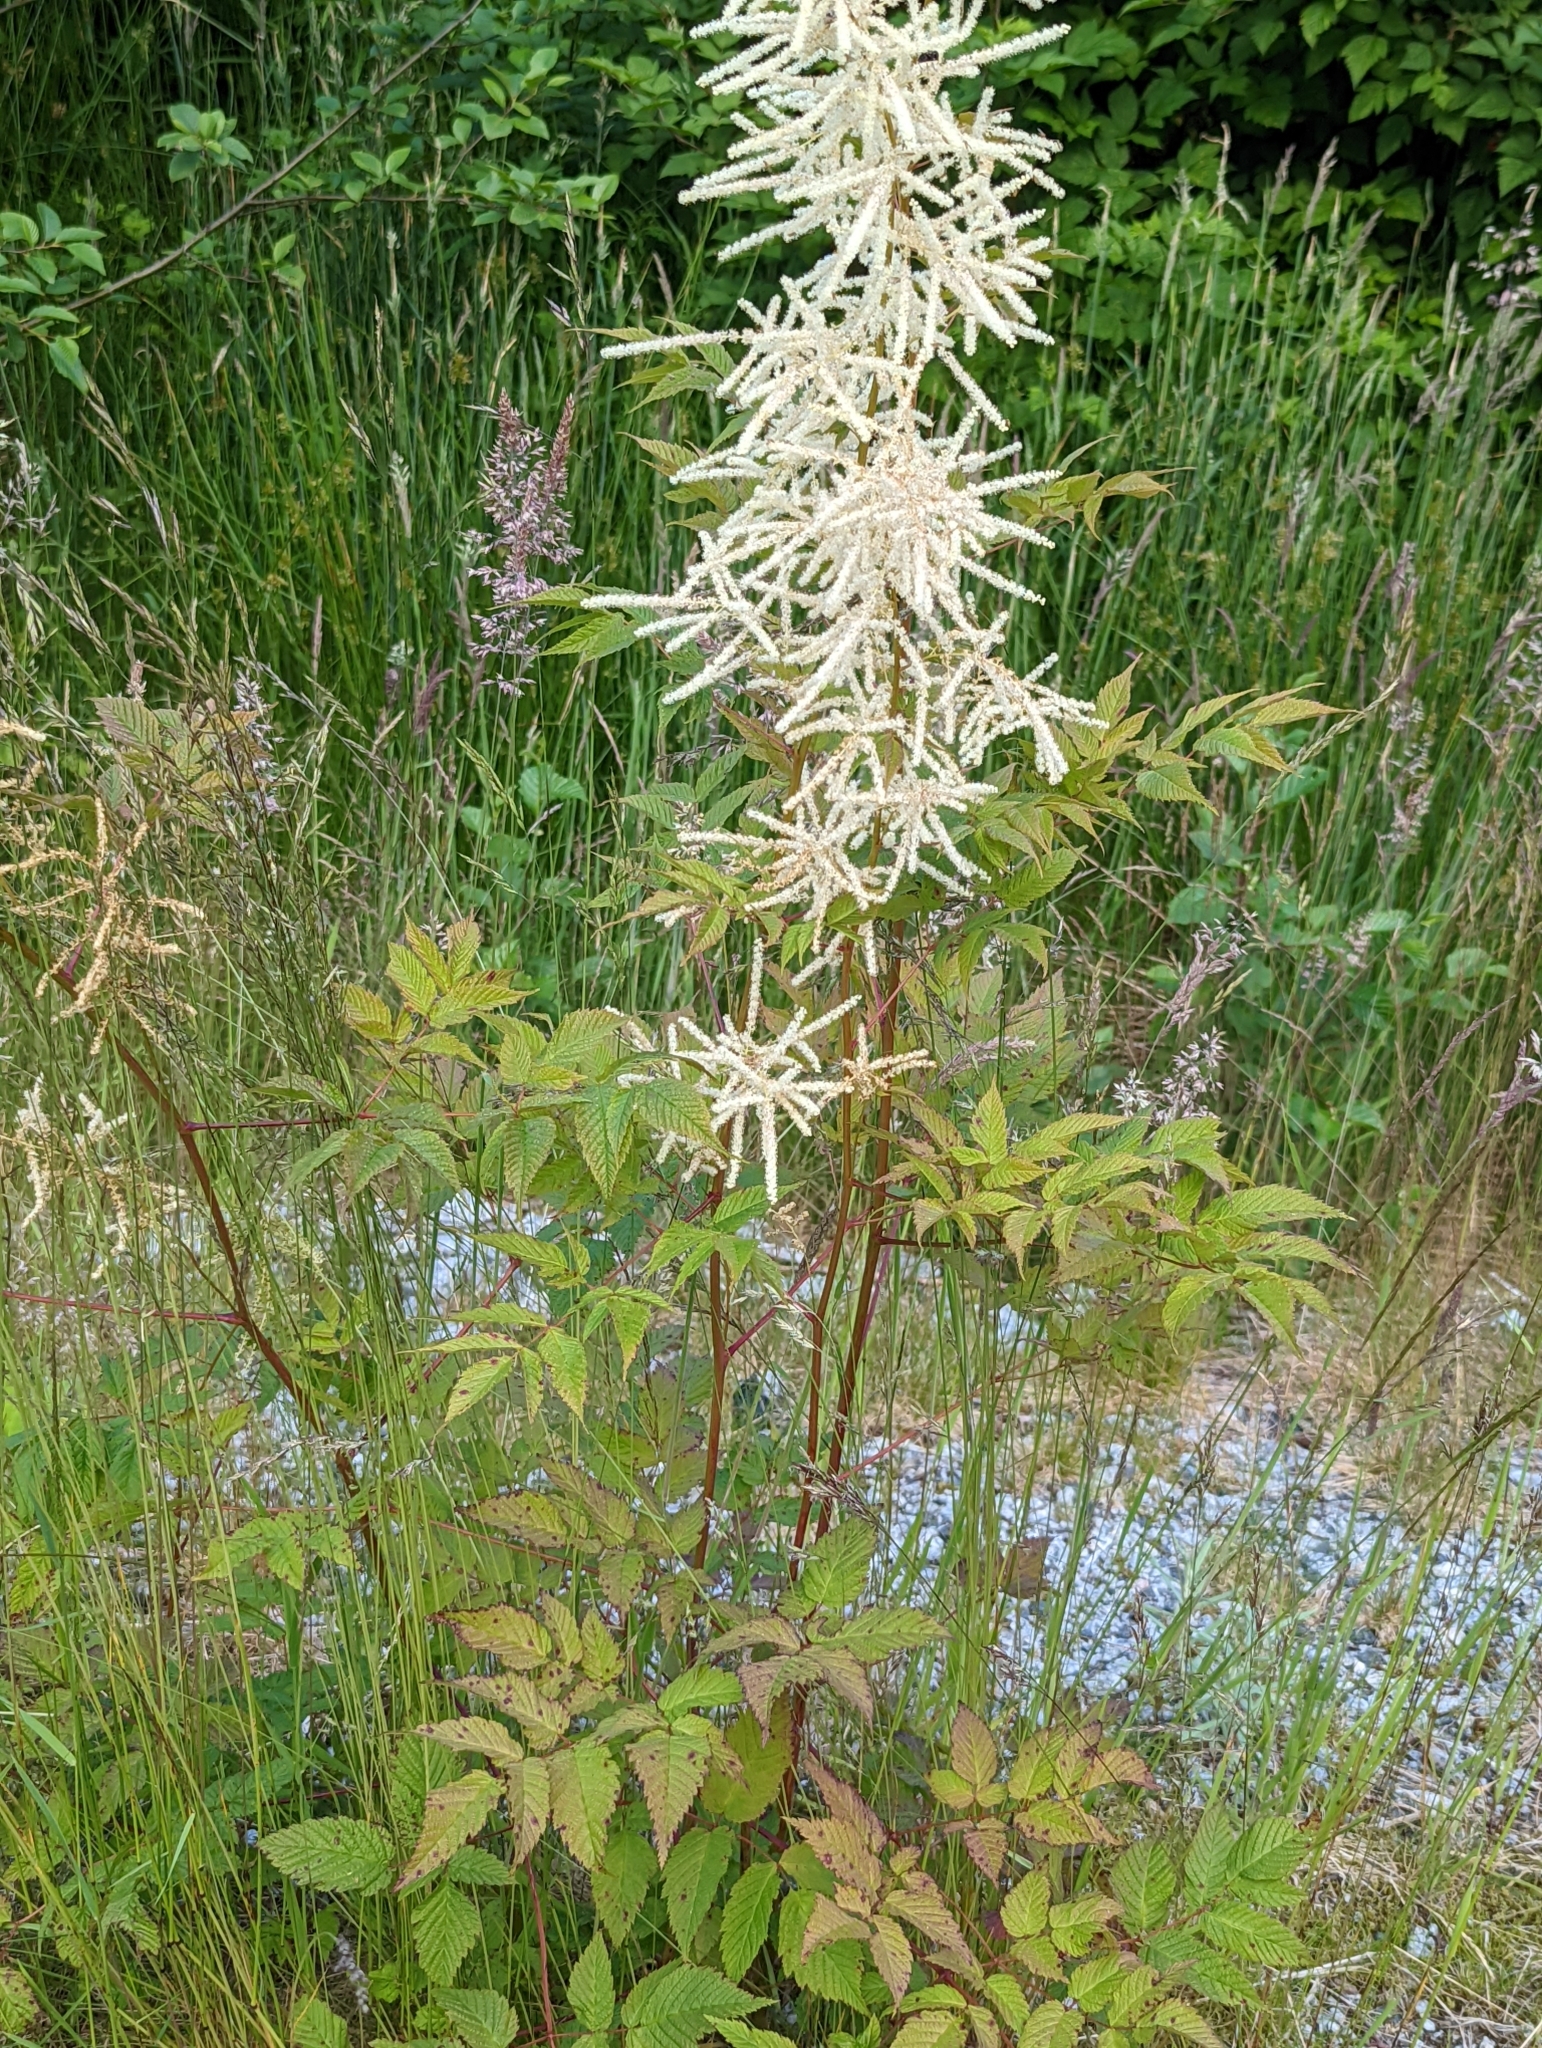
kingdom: Plantae
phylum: Tracheophyta
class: Magnoliopsida
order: Rosales
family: Rosaceae
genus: Aruncus
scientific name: Aruncus dioicus
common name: Buck's-beard
